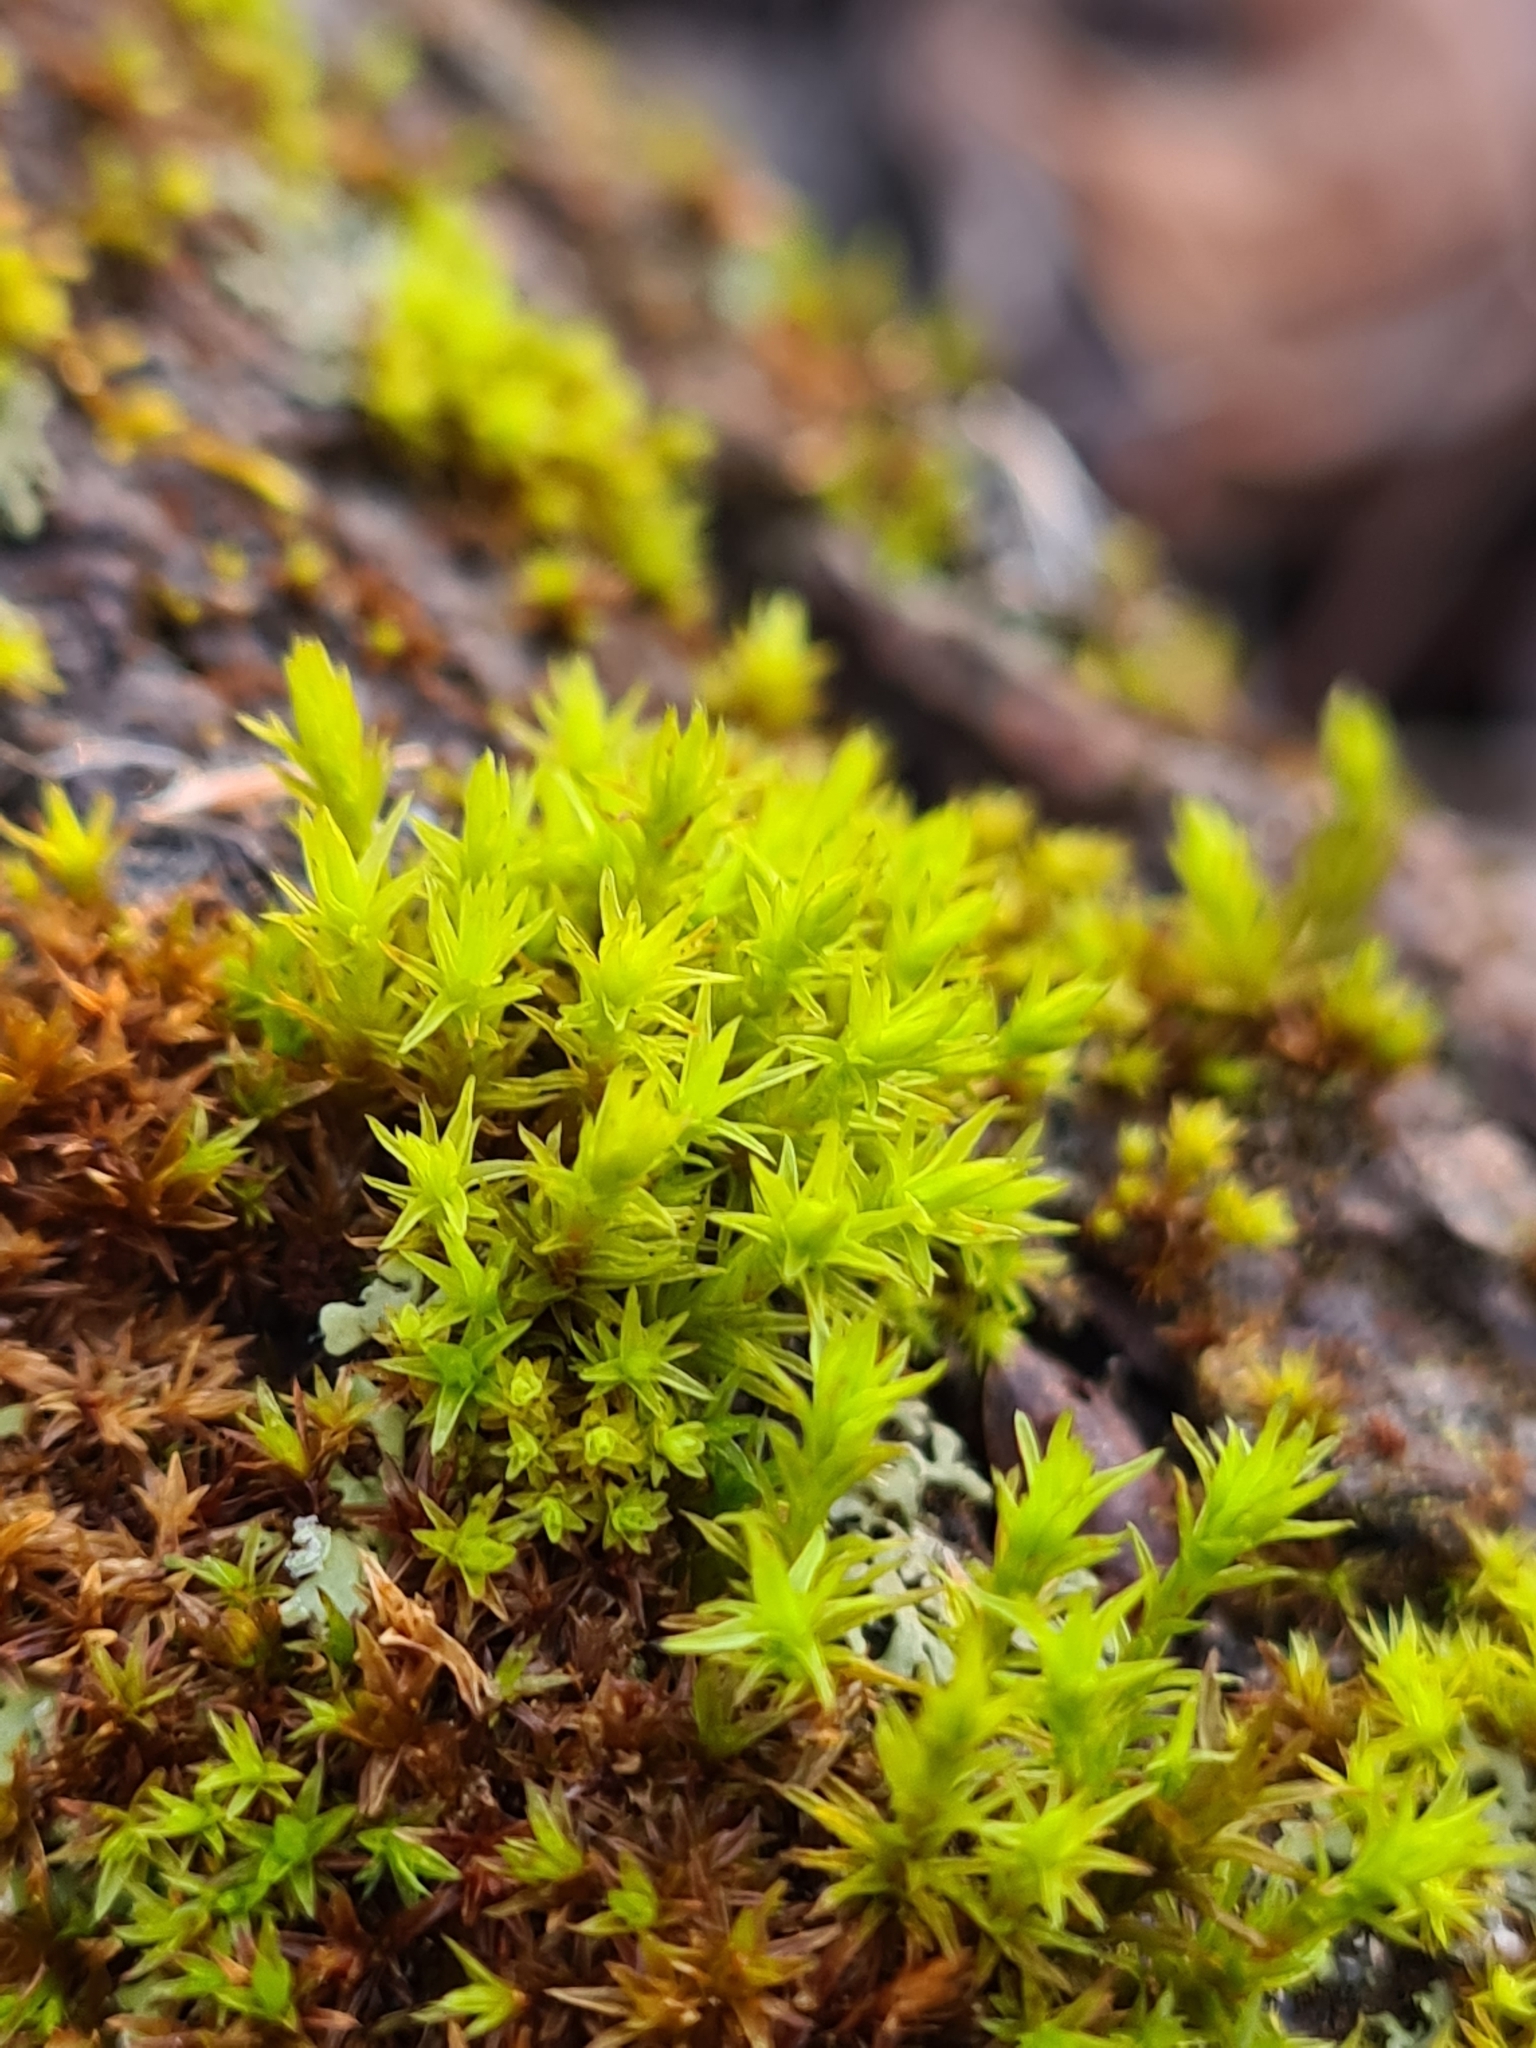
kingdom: Plantae
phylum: Bryophyta
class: Bryopsida
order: Orthotrichales
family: Orthotrichaceae
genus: Lewinskya
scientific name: Lewinskya affinis
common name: Wood bristle-moss
